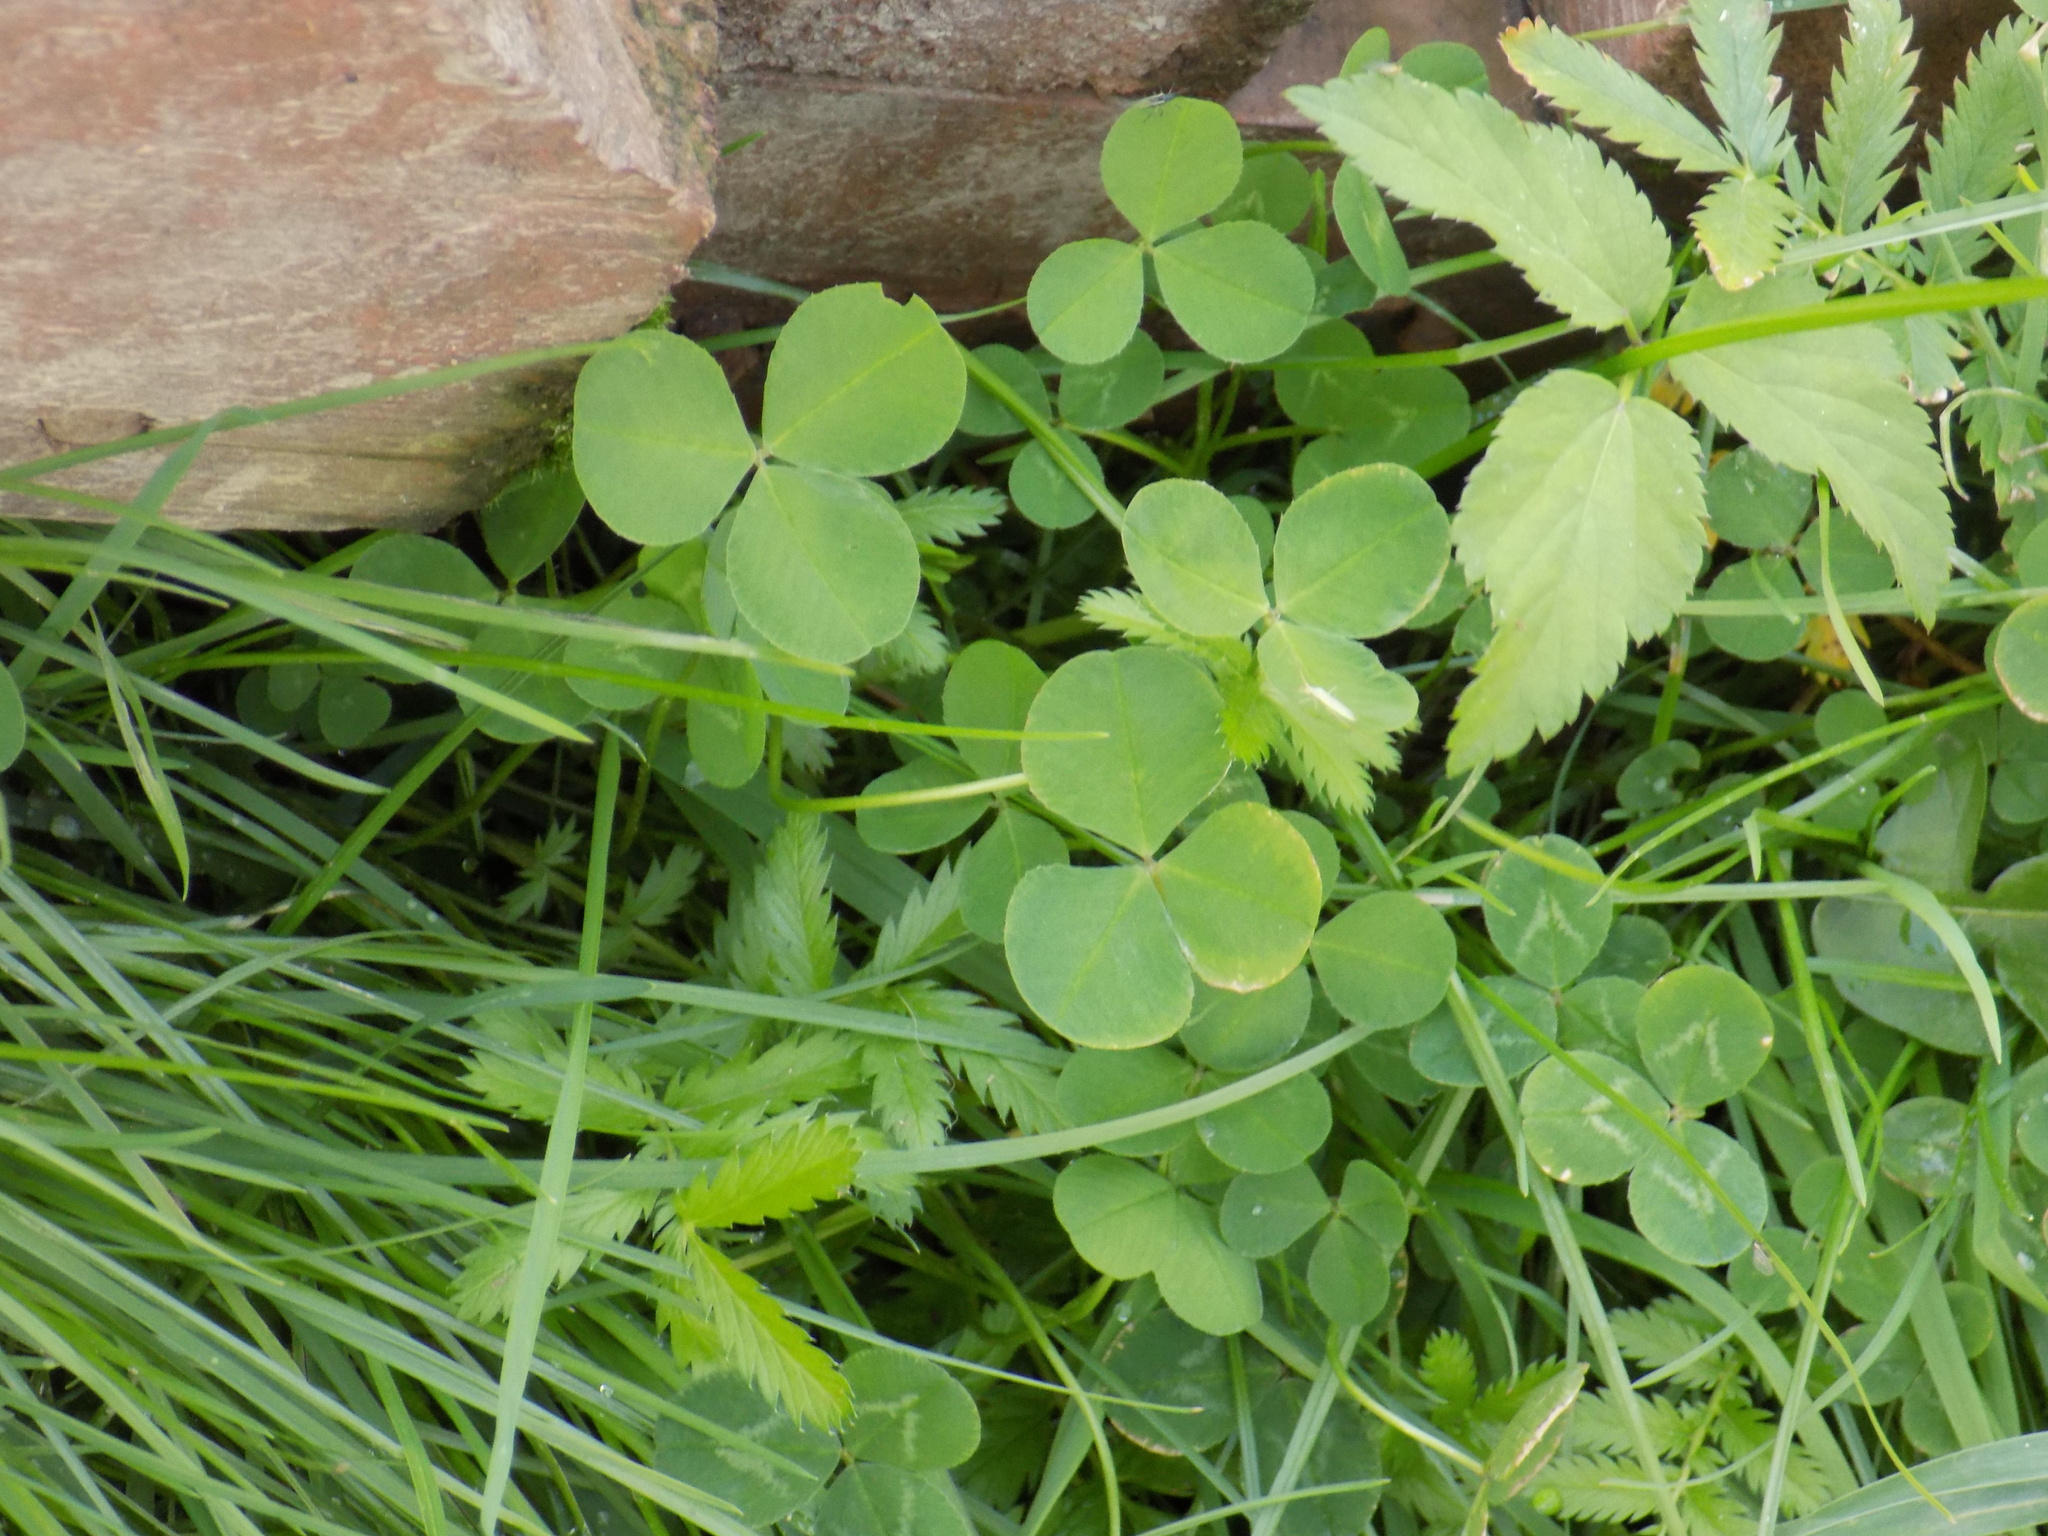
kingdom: Plantae
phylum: Tracheophyta
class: Magnoliopsida
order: Fabales
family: Fabaceae
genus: Trifolium
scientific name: Trifolium repens
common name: White clover
